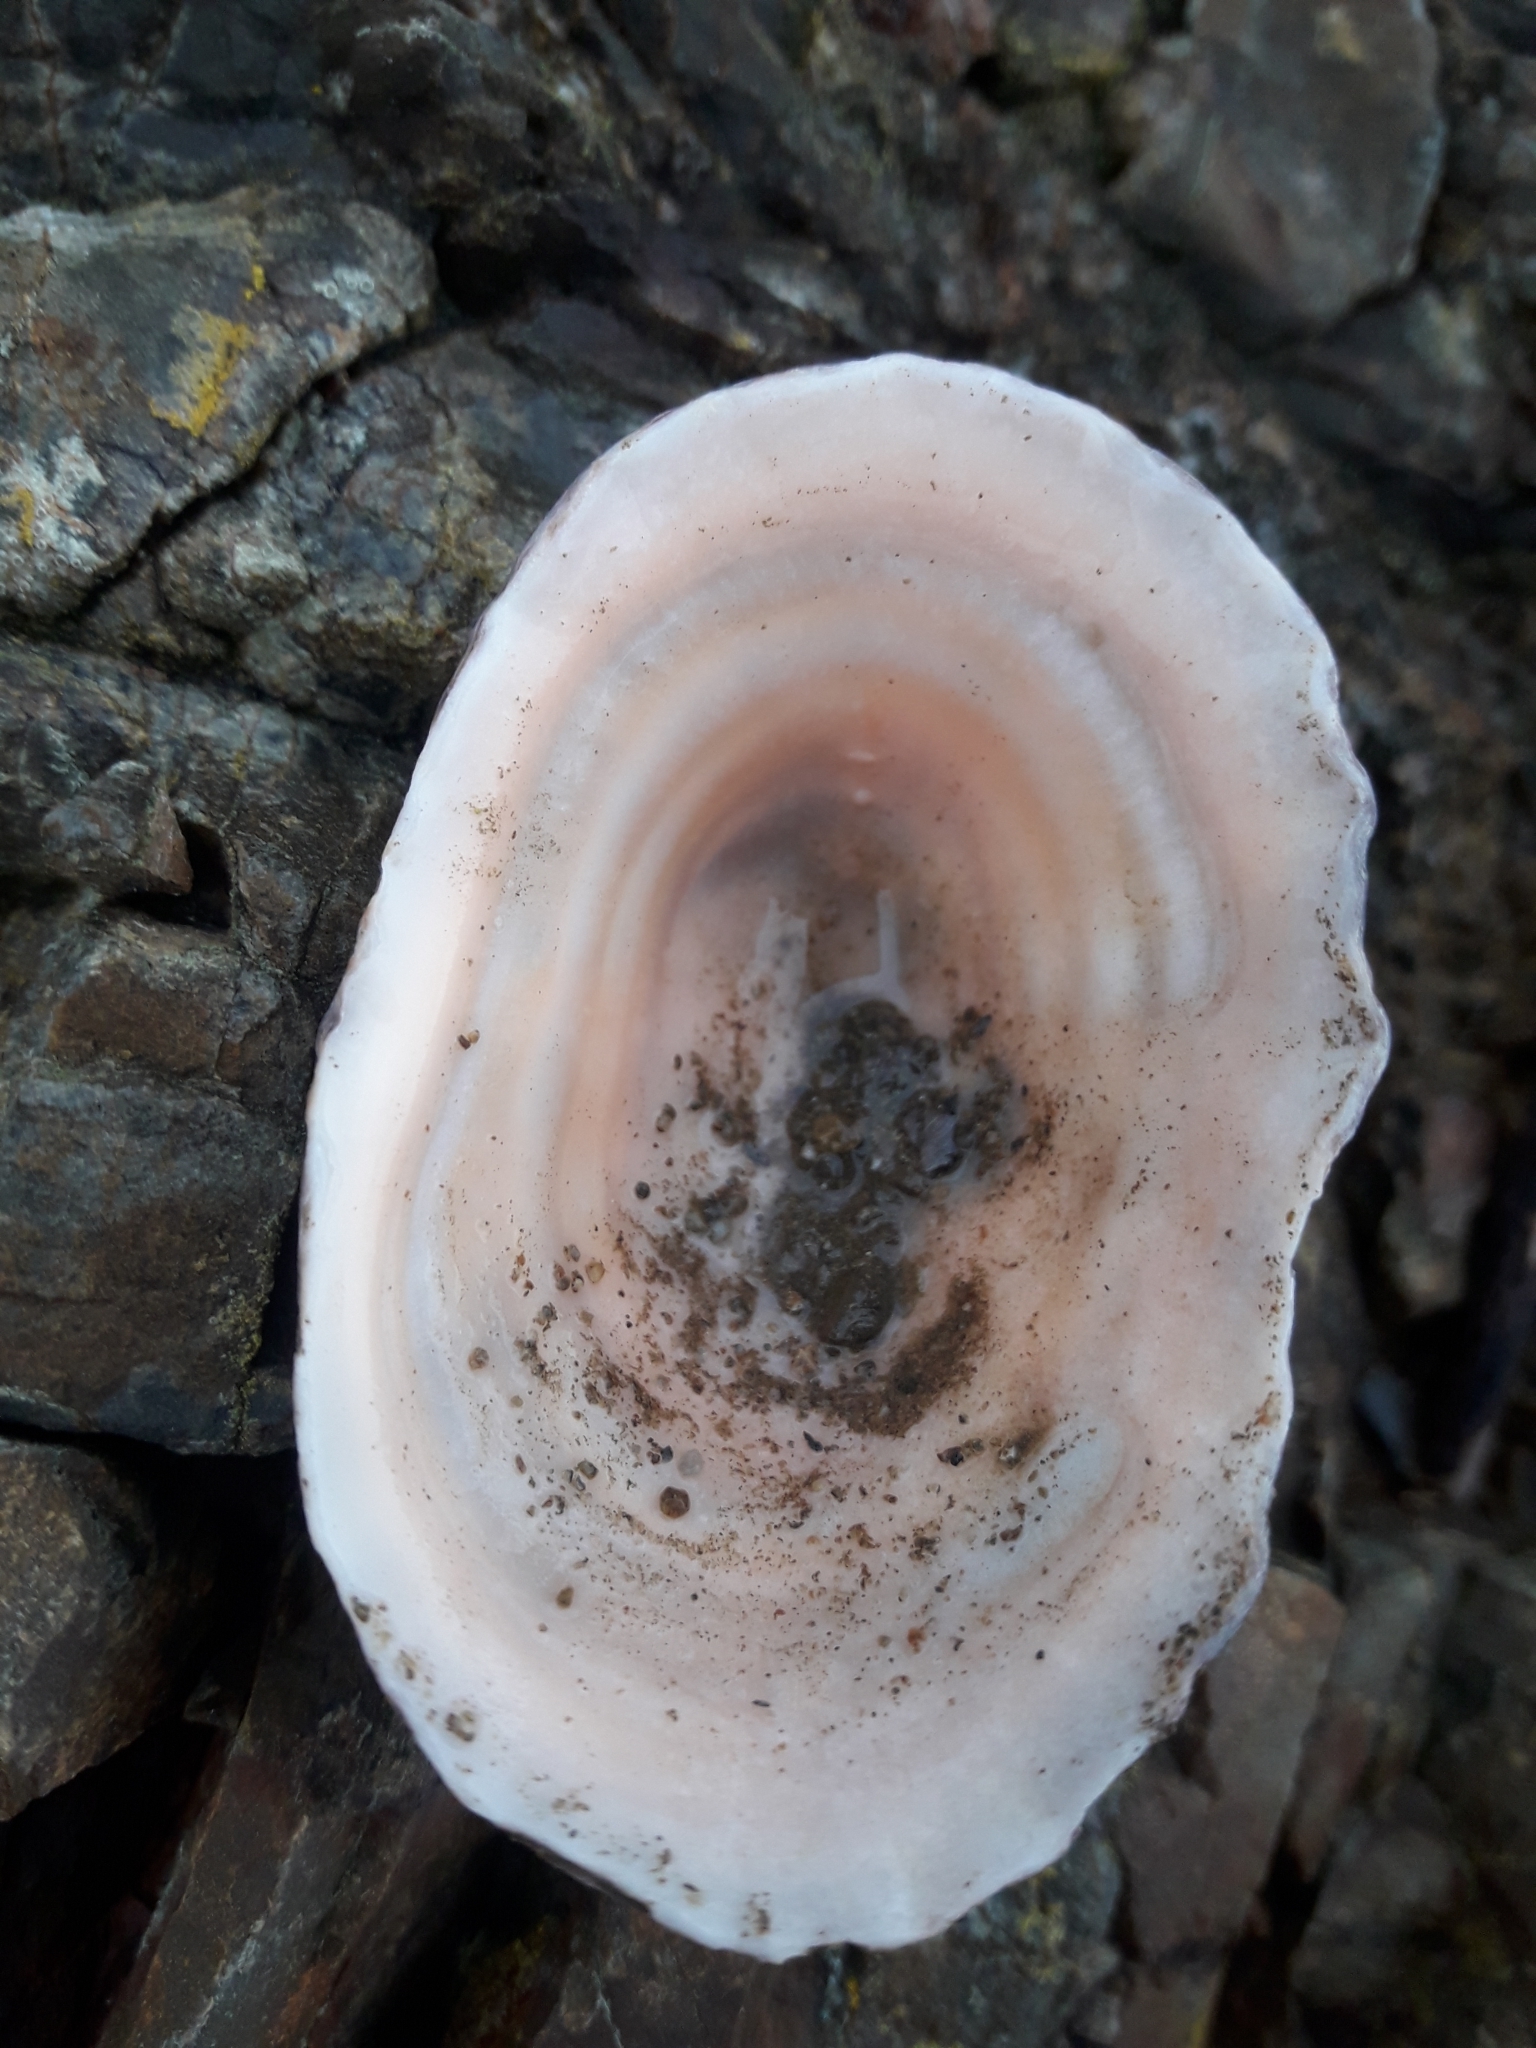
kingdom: Animalia
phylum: Mollusca
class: Gastropoda
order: Siphonariida
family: Siphonariidae
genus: Benhamina
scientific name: Benhamina obliquata
